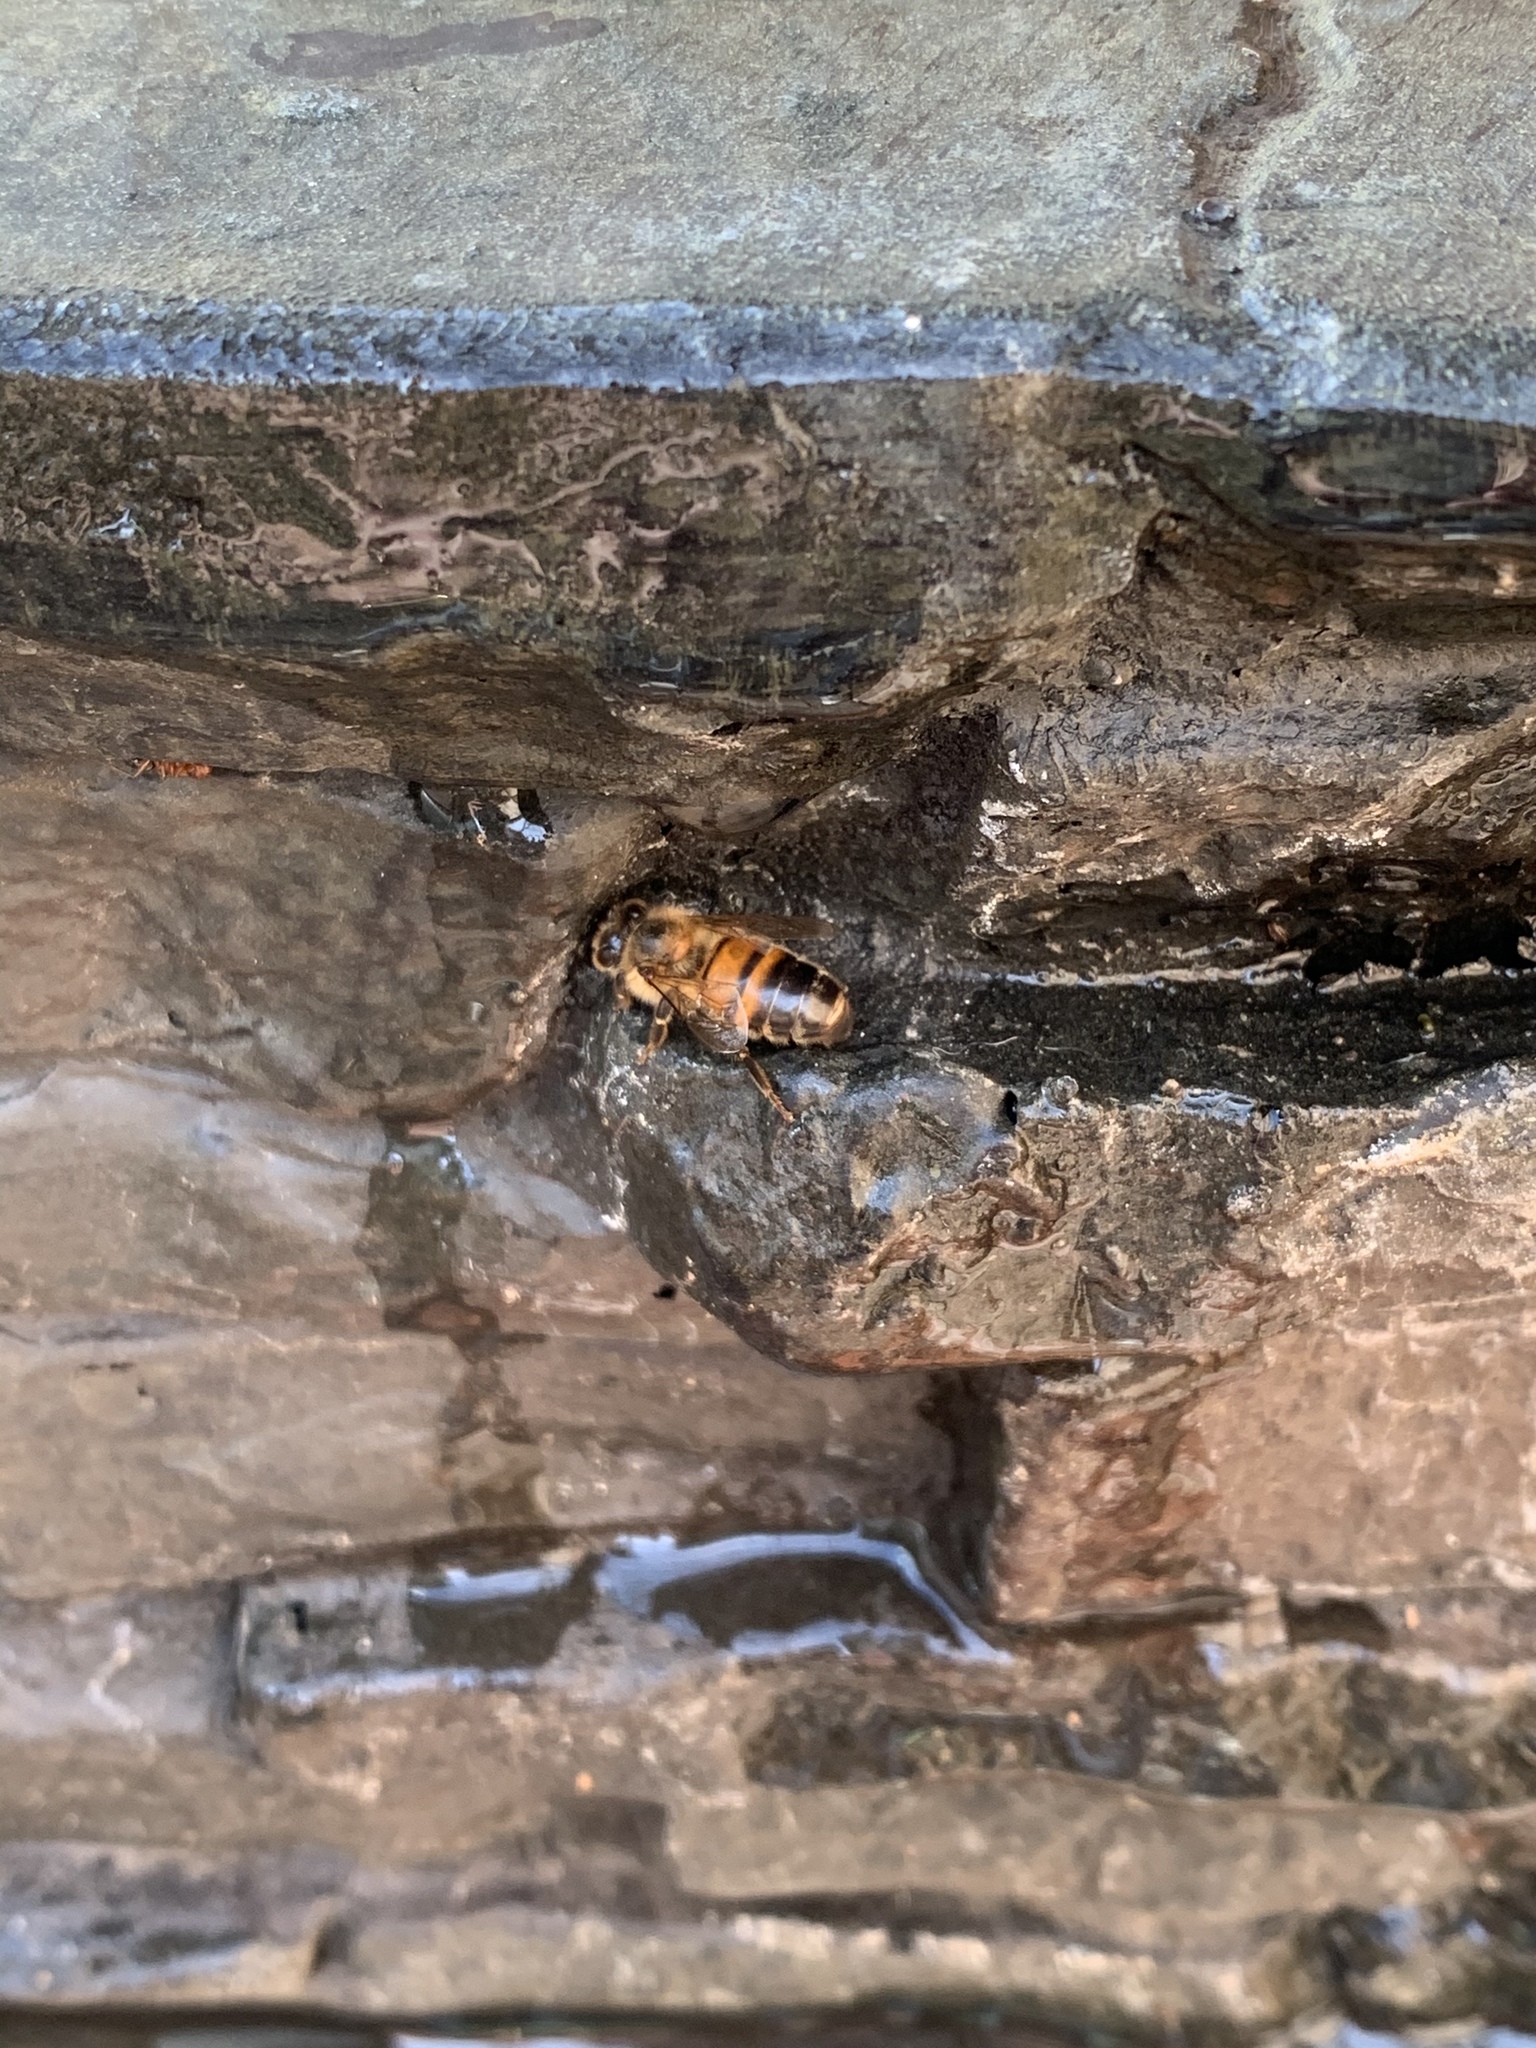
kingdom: Animalia
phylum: Arthropoda
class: Insecta
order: Hymenoptera
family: Apidae
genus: Apis
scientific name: Apis mellifera
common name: Honey bee
